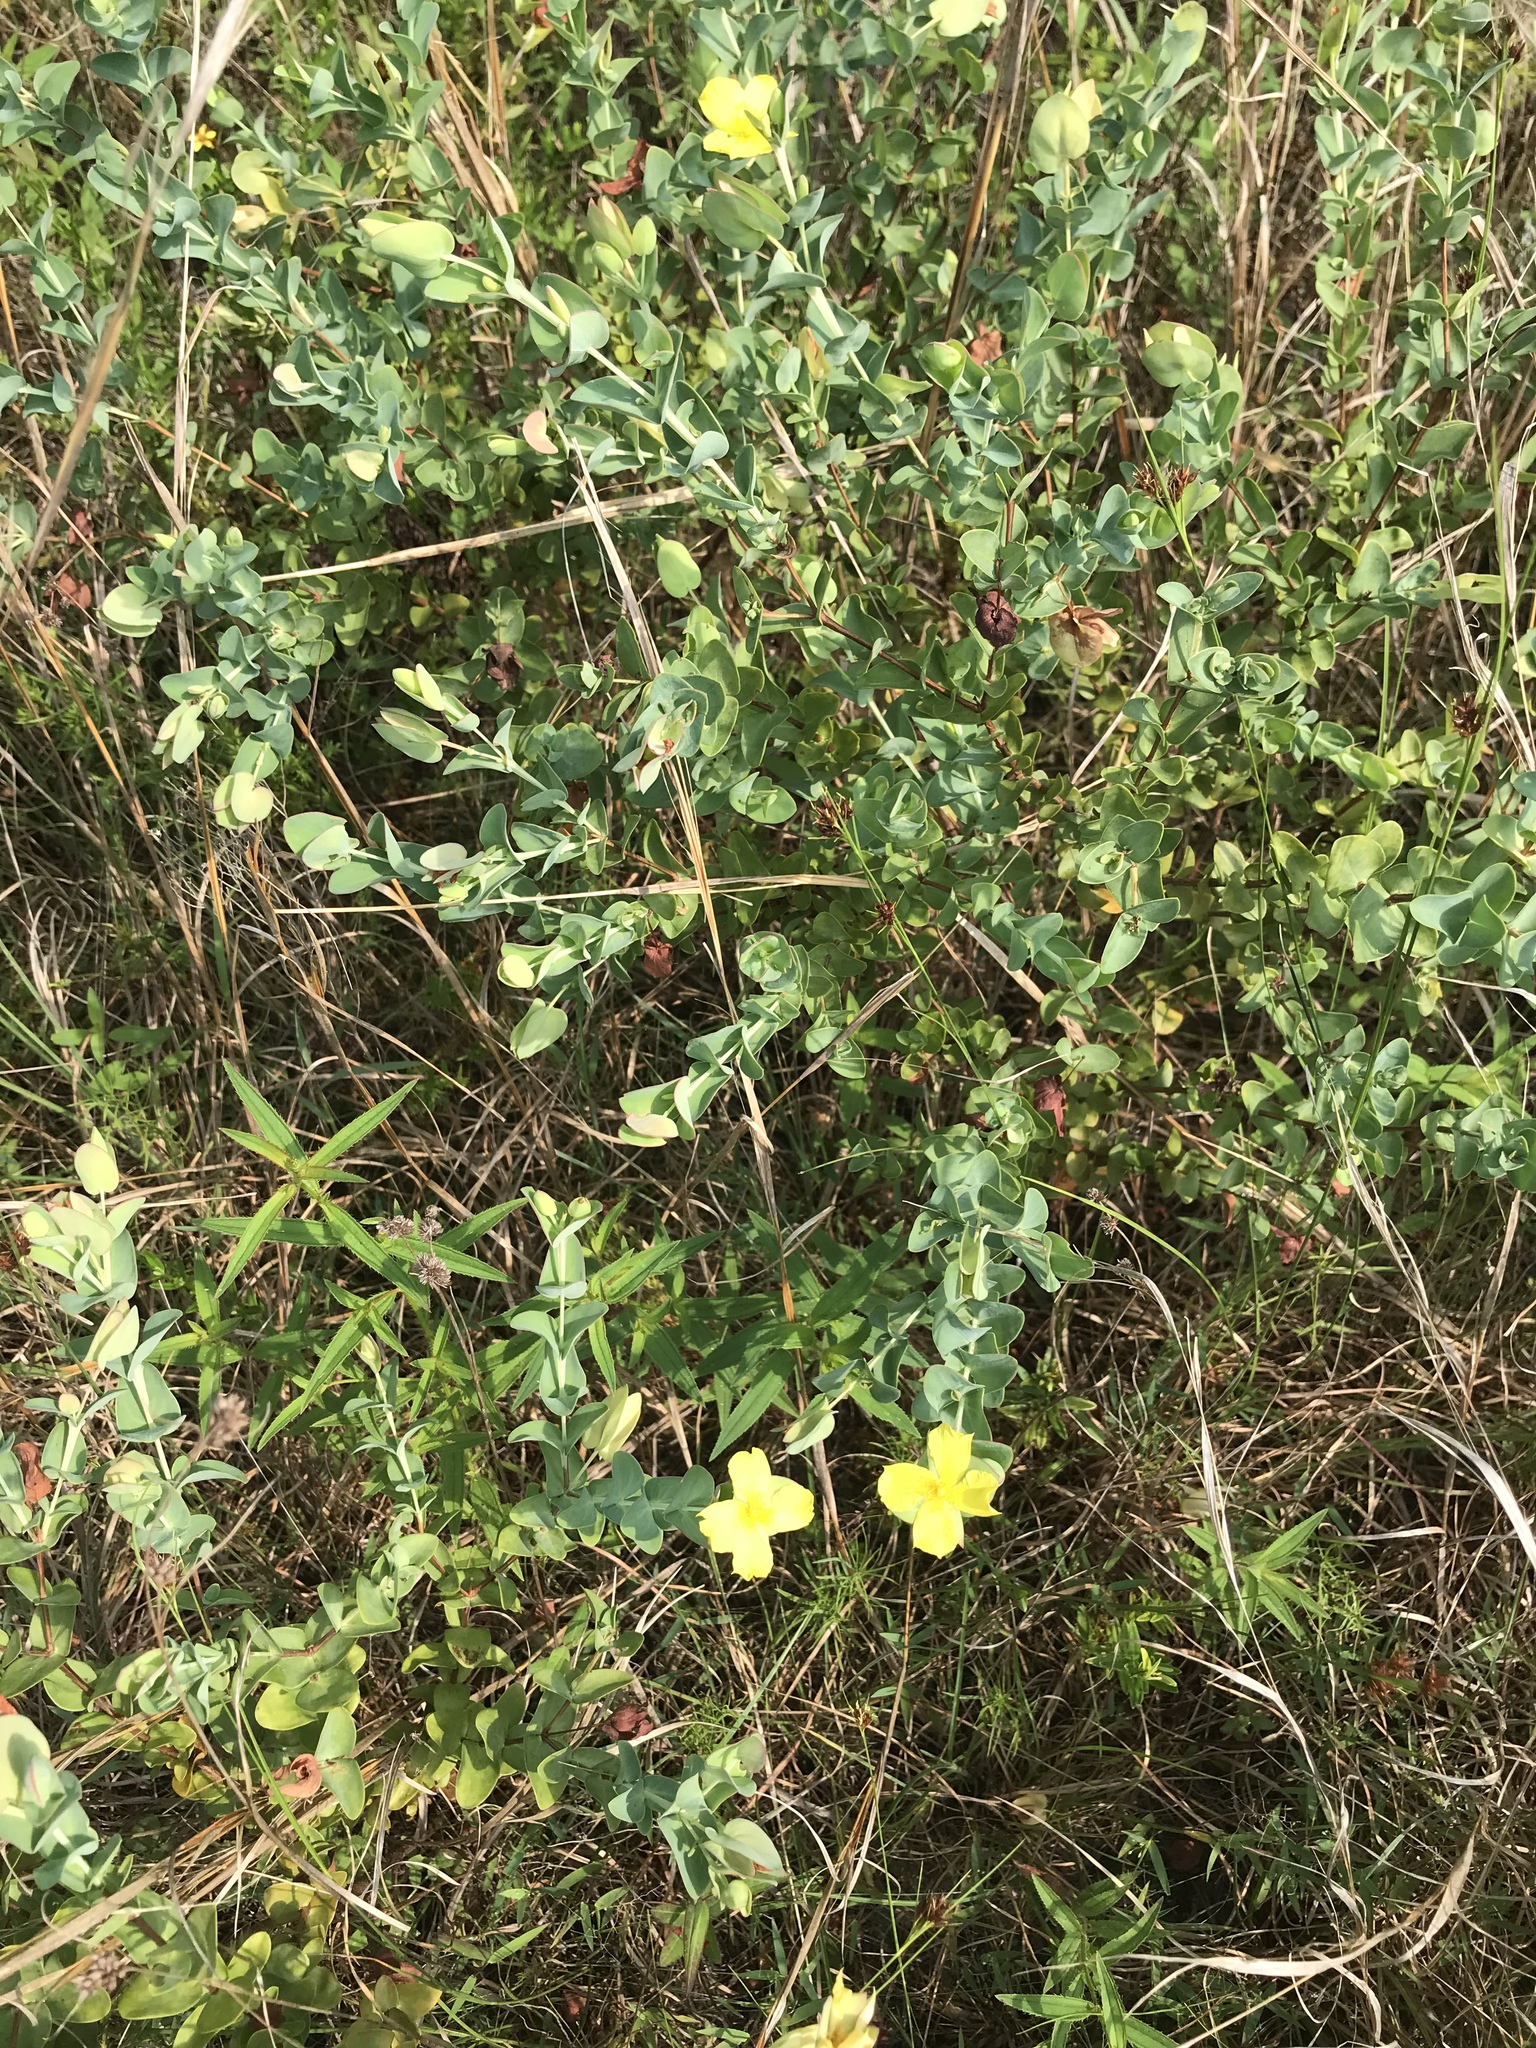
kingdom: Plantae
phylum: Tracheophyta
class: Magnoliopsida
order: Malpighiales
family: Hypericaceae
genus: Hypericum
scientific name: Hypericum tetrapetalum
